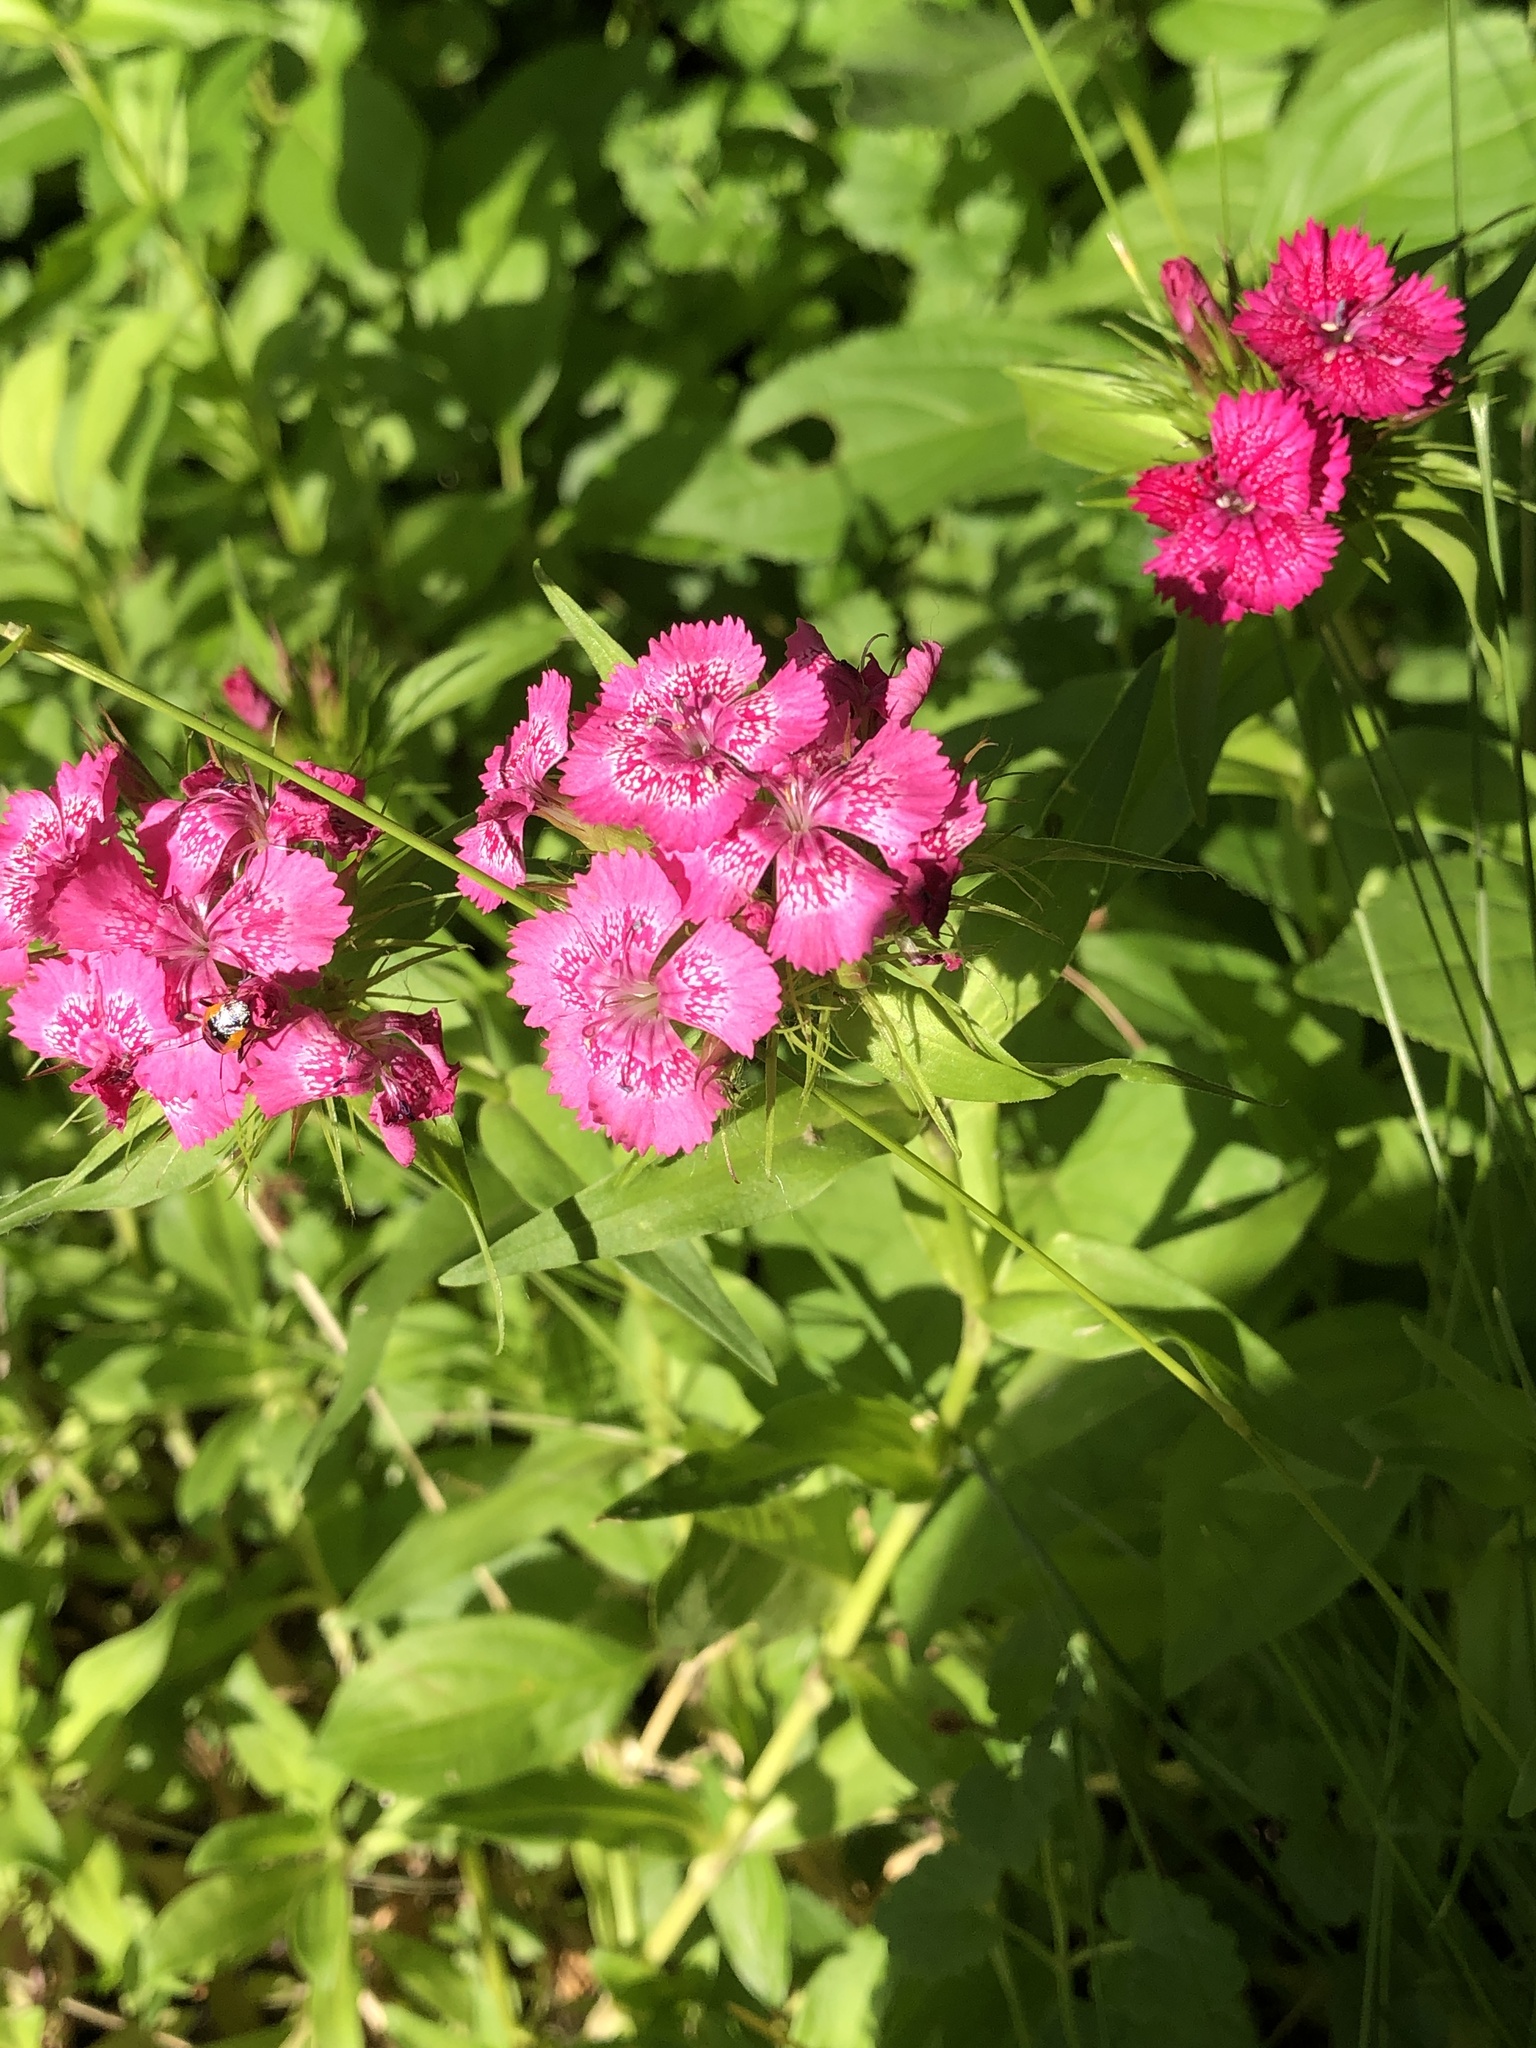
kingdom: Plantae
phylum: Tracheophyta
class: Magnoliopsida
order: Caryophyllales
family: Caryophyllaceae
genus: Dianthus
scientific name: Dianthus barbatus
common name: Sweet-william
